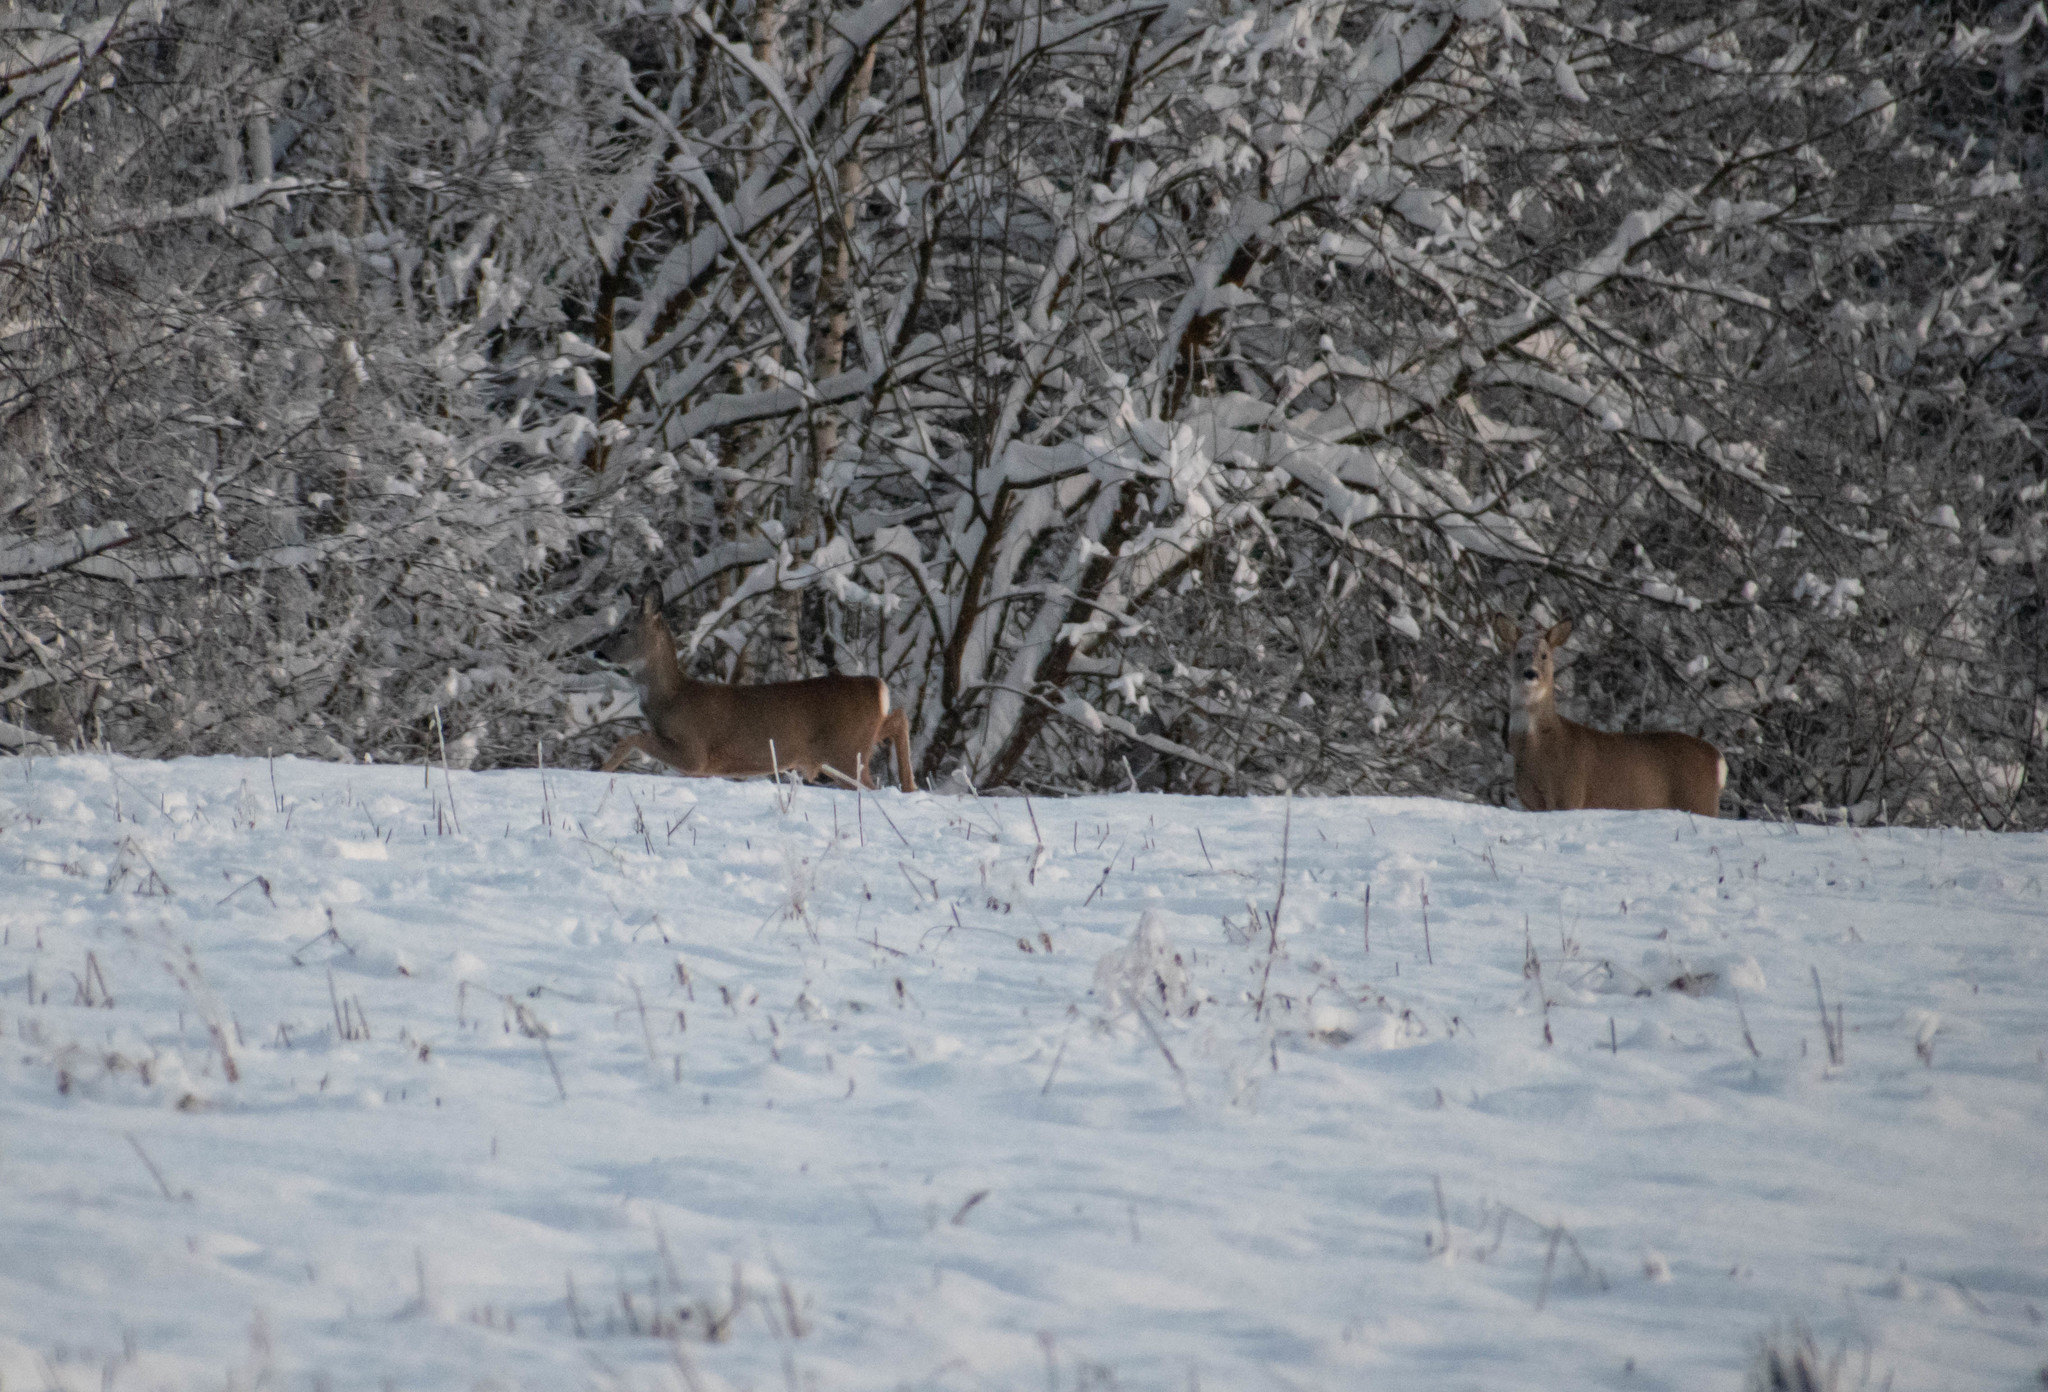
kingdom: Animalia
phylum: Chordata
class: Mammalia
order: Artiodactyla
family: Cervidae
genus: Capreolus
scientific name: Capreolus capreolus
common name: Western roe deer
